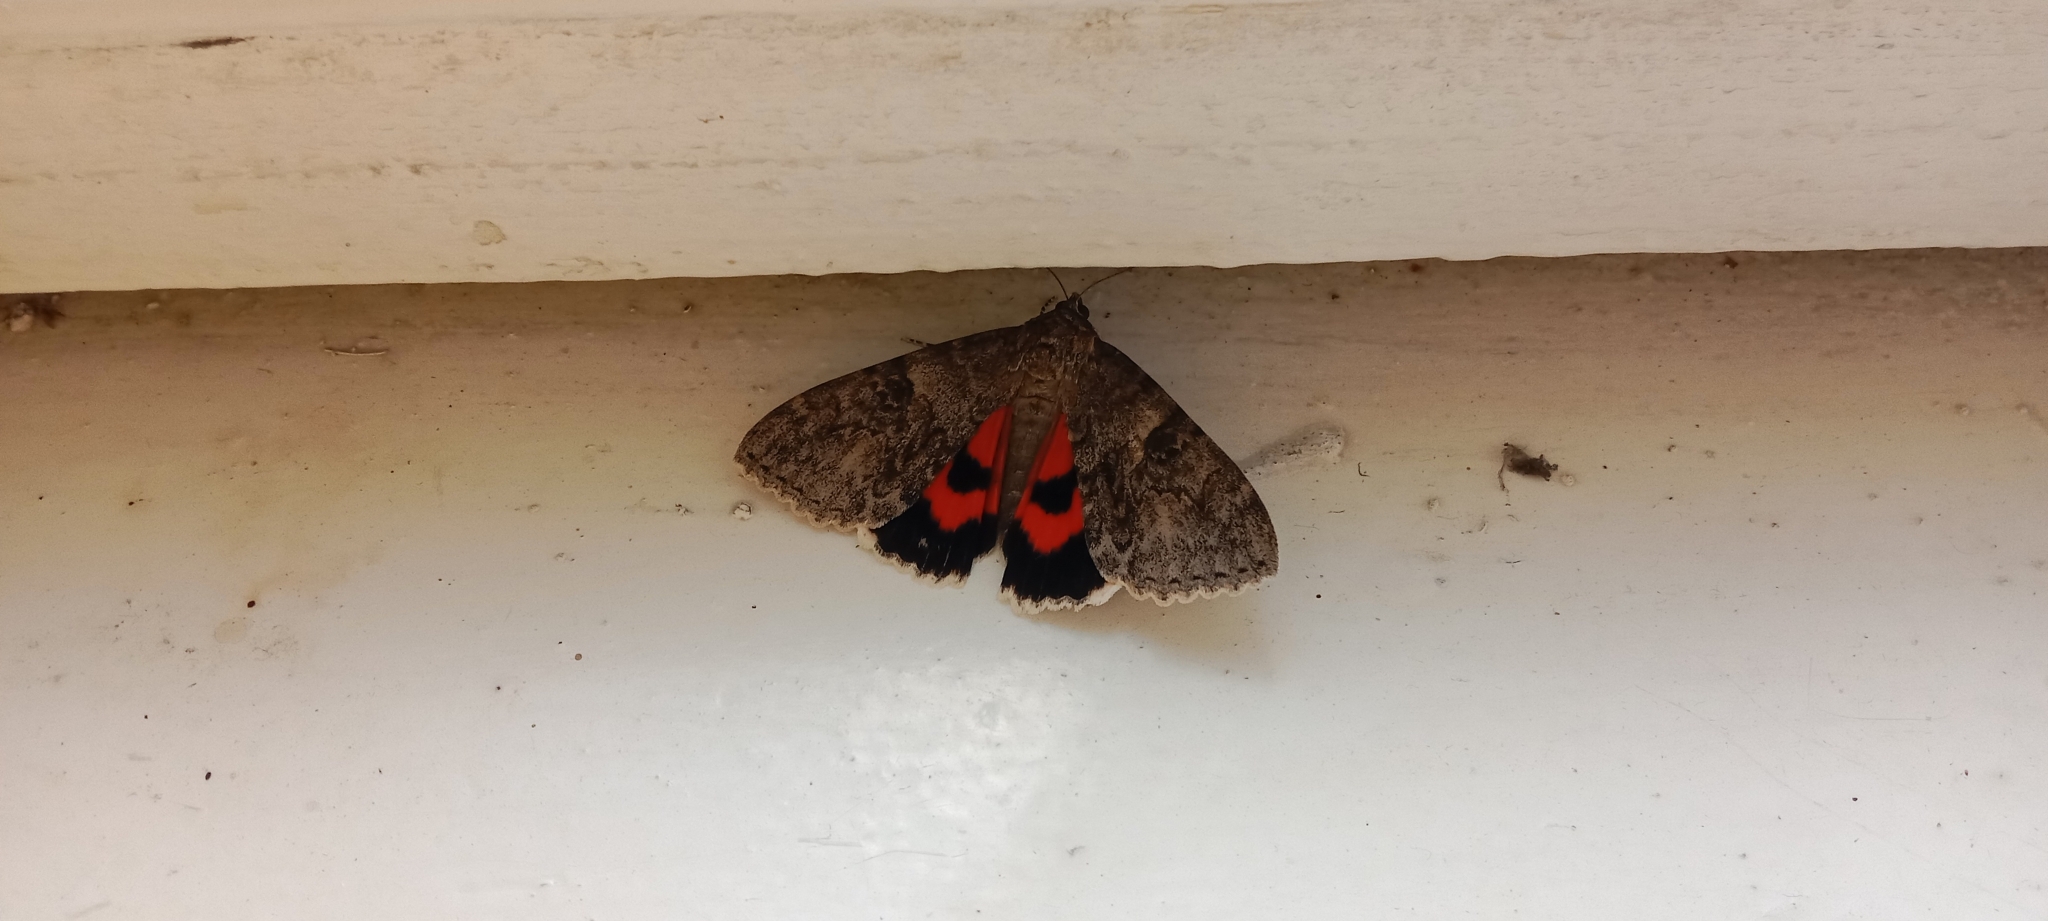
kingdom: Animalia
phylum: Arthropoda
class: Insecta
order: Lepidoptera
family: Erebidae
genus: Catocala
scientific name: Catocala nupta
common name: Red underwing
